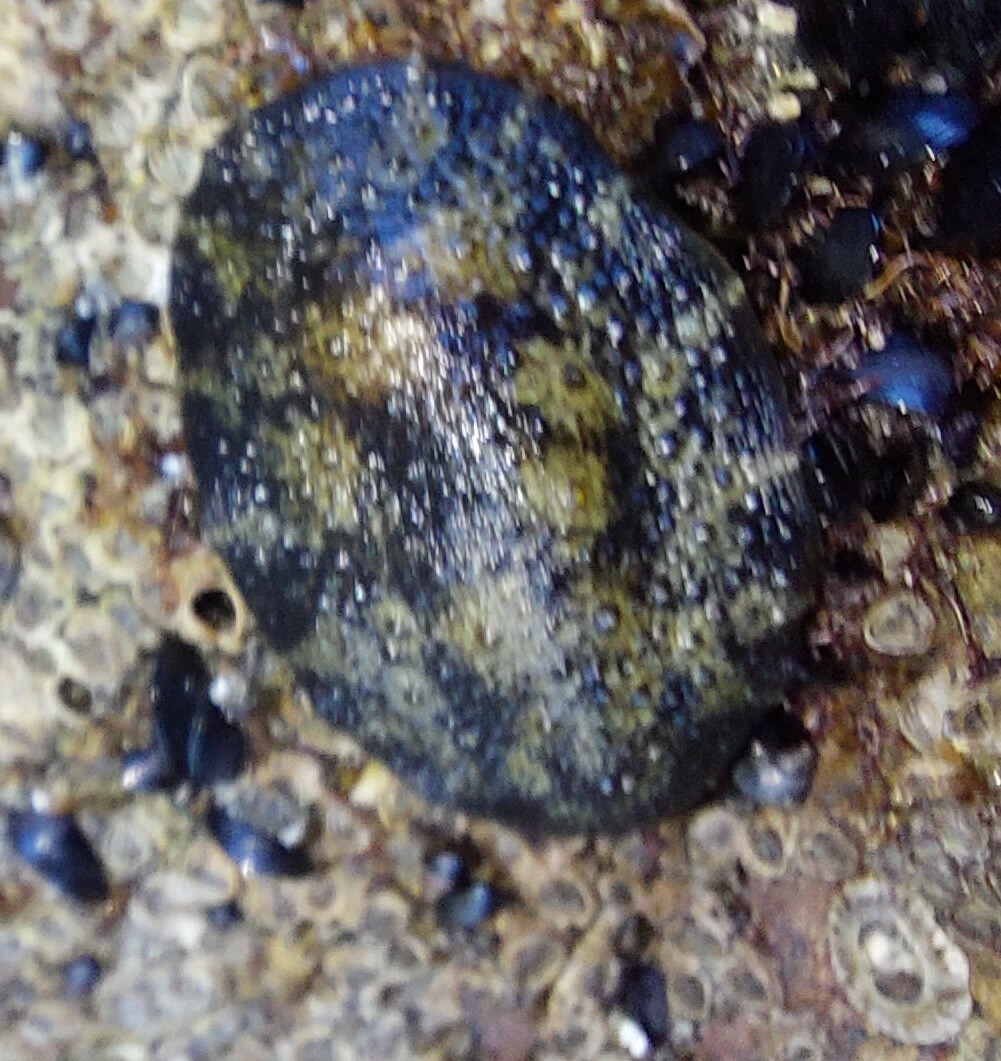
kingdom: Animalia
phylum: Mollusca
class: Gastropoda
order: Systellommatophora
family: Onchidiidae
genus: Onchidella
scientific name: Onchidella nigricans
